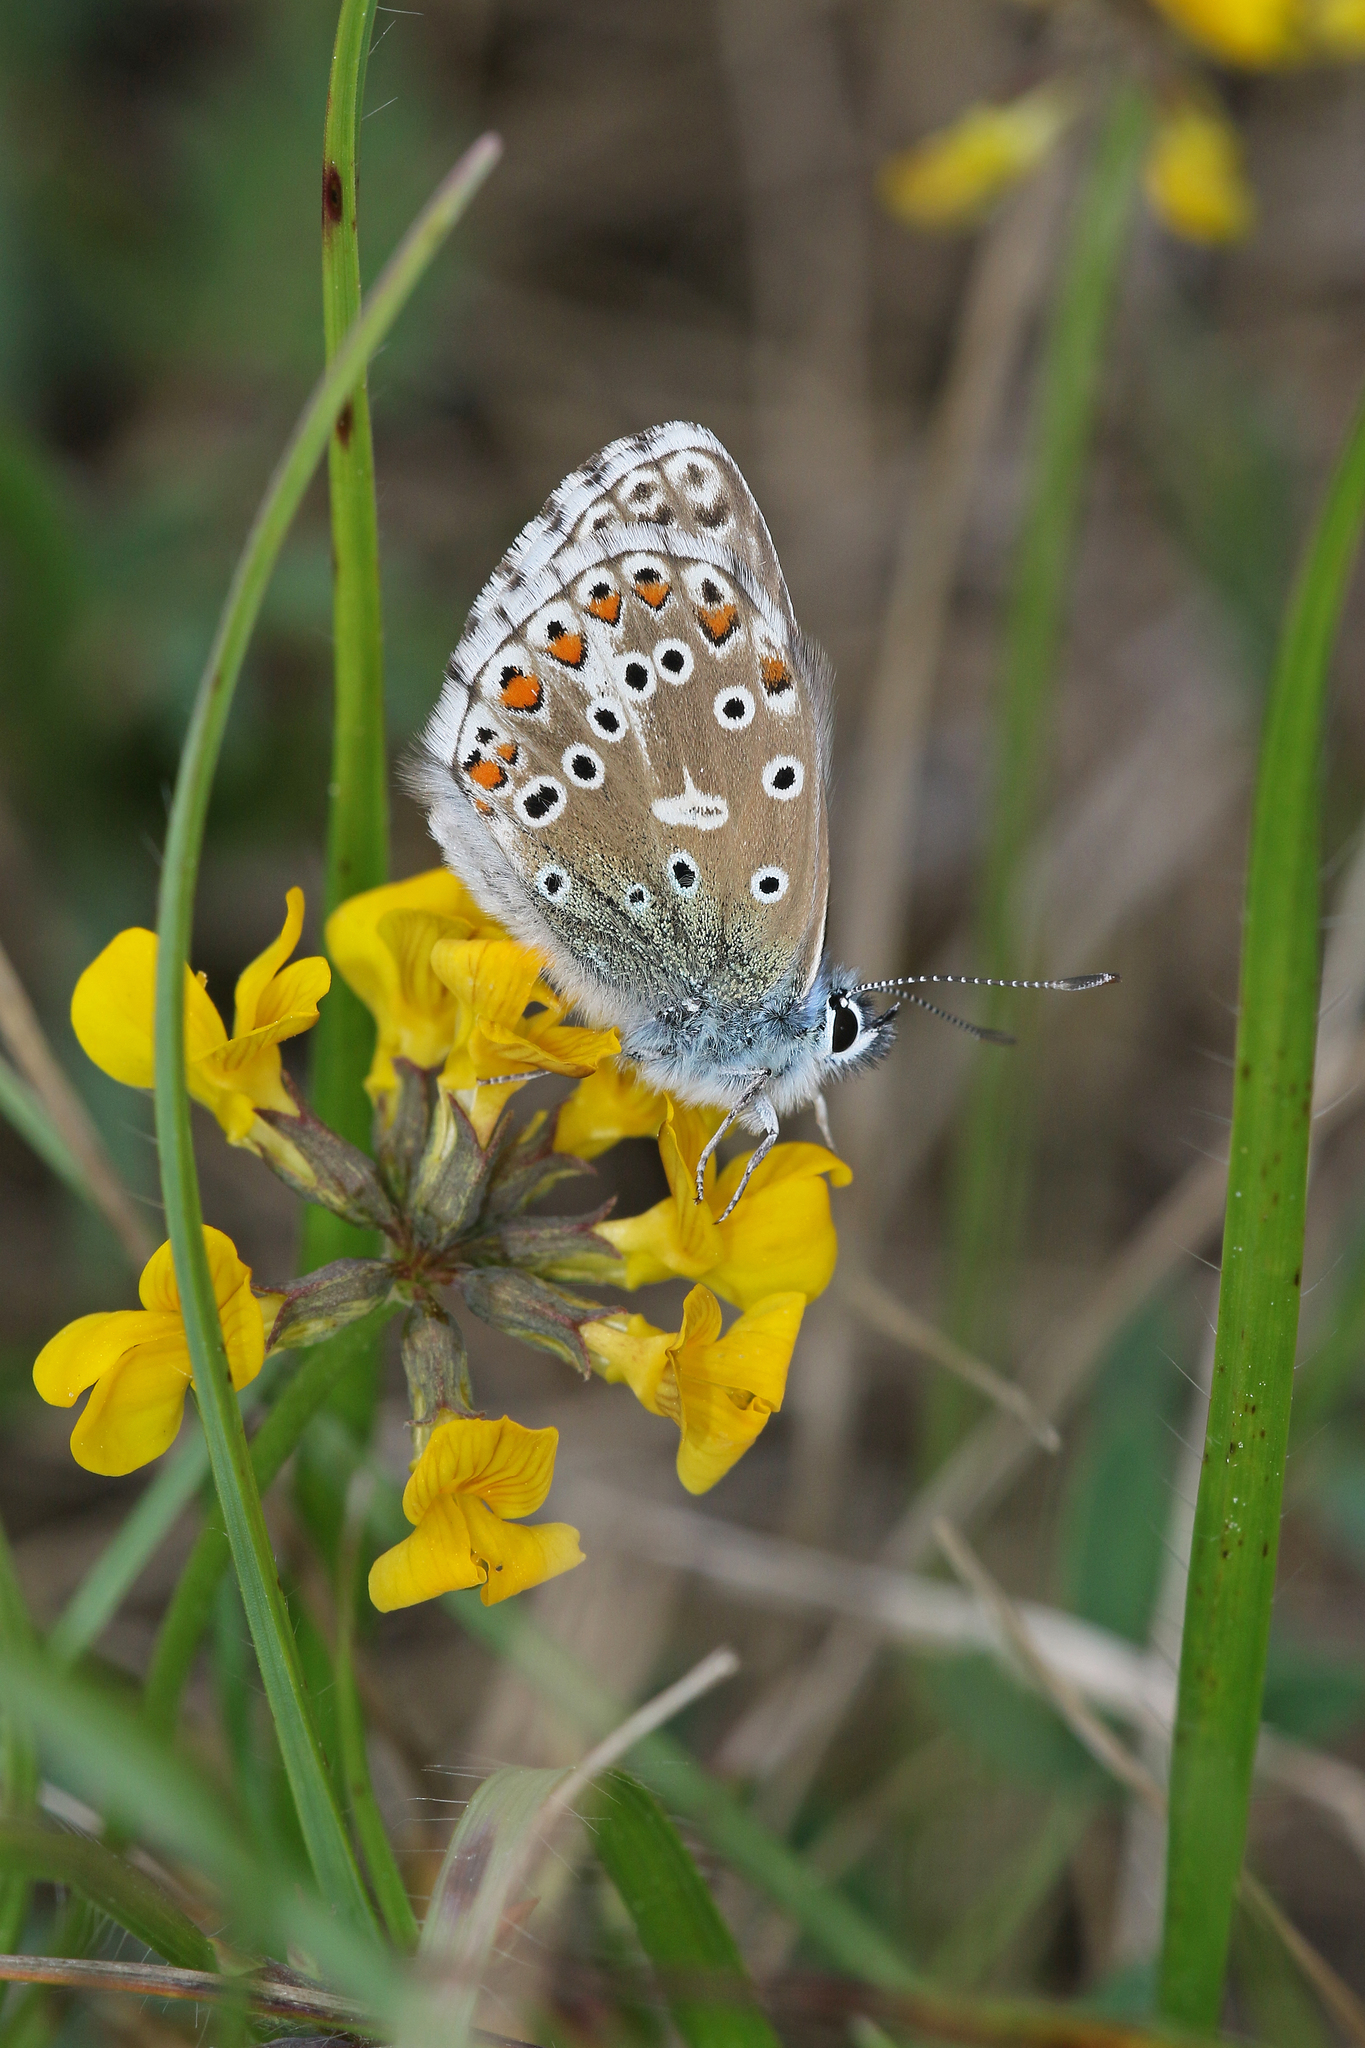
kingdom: Animalia
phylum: Arthropoda
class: Insecta
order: Lepidoptera
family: Lycaenidae
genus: Lysandra
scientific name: Lysandra bellargus
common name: Adonis blue
